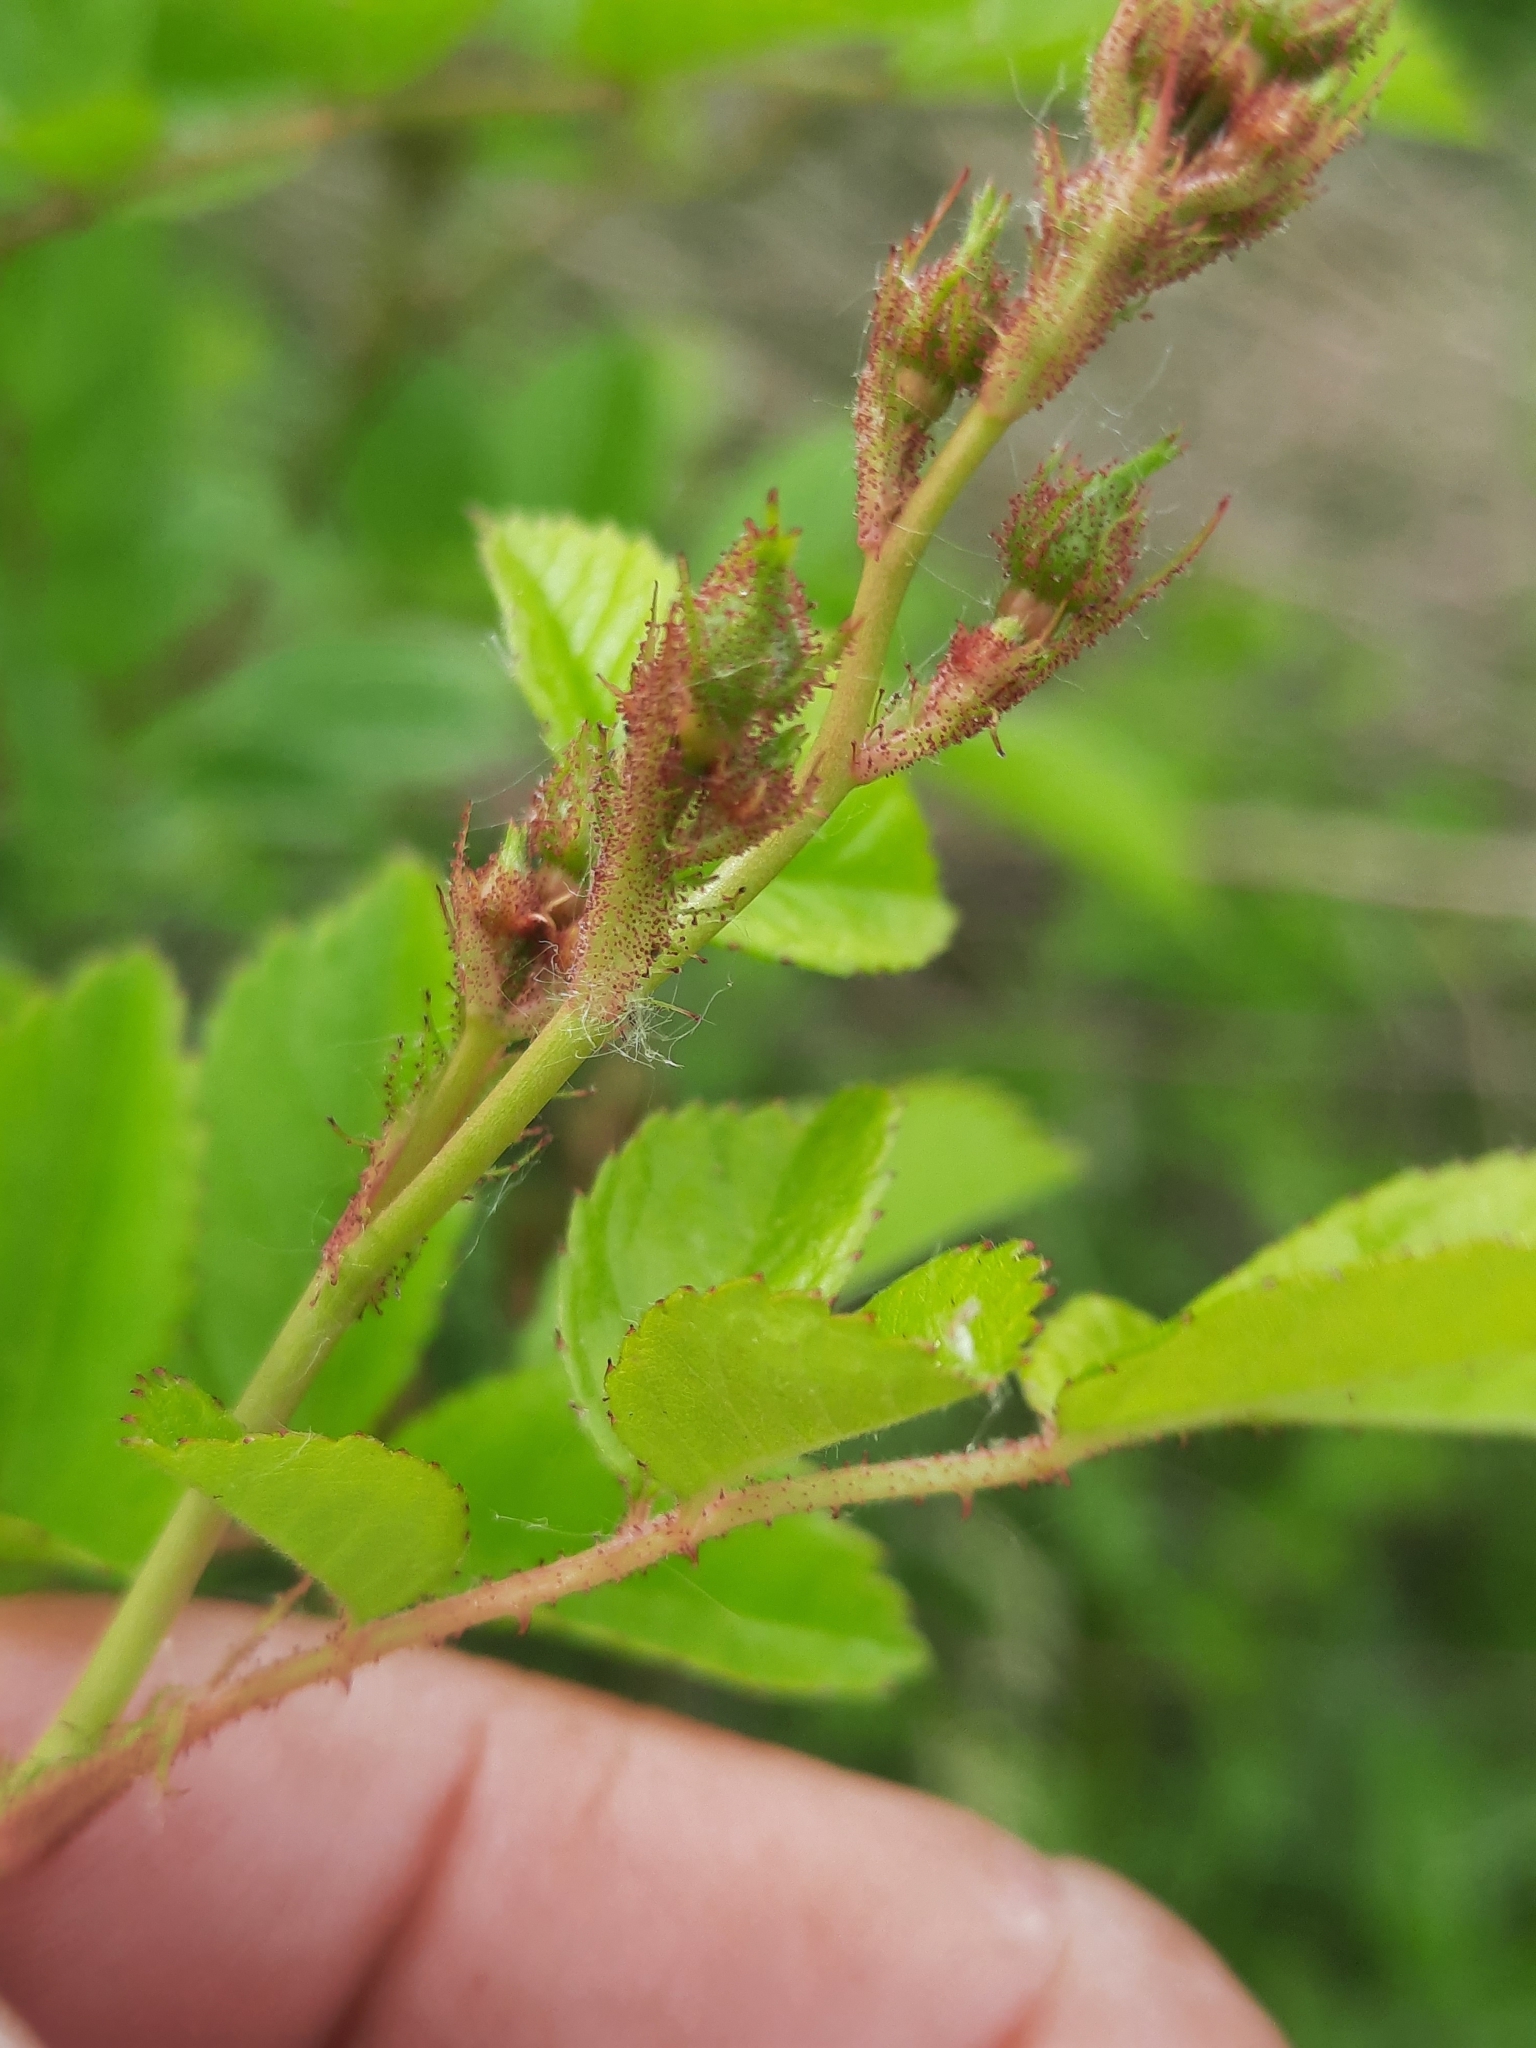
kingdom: Plantae
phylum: Tracheophyta
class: Magnoliopsida
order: Rosales
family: Rosaceae
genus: Rosa
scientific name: Rosa multiflora
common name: Multiflora rose
